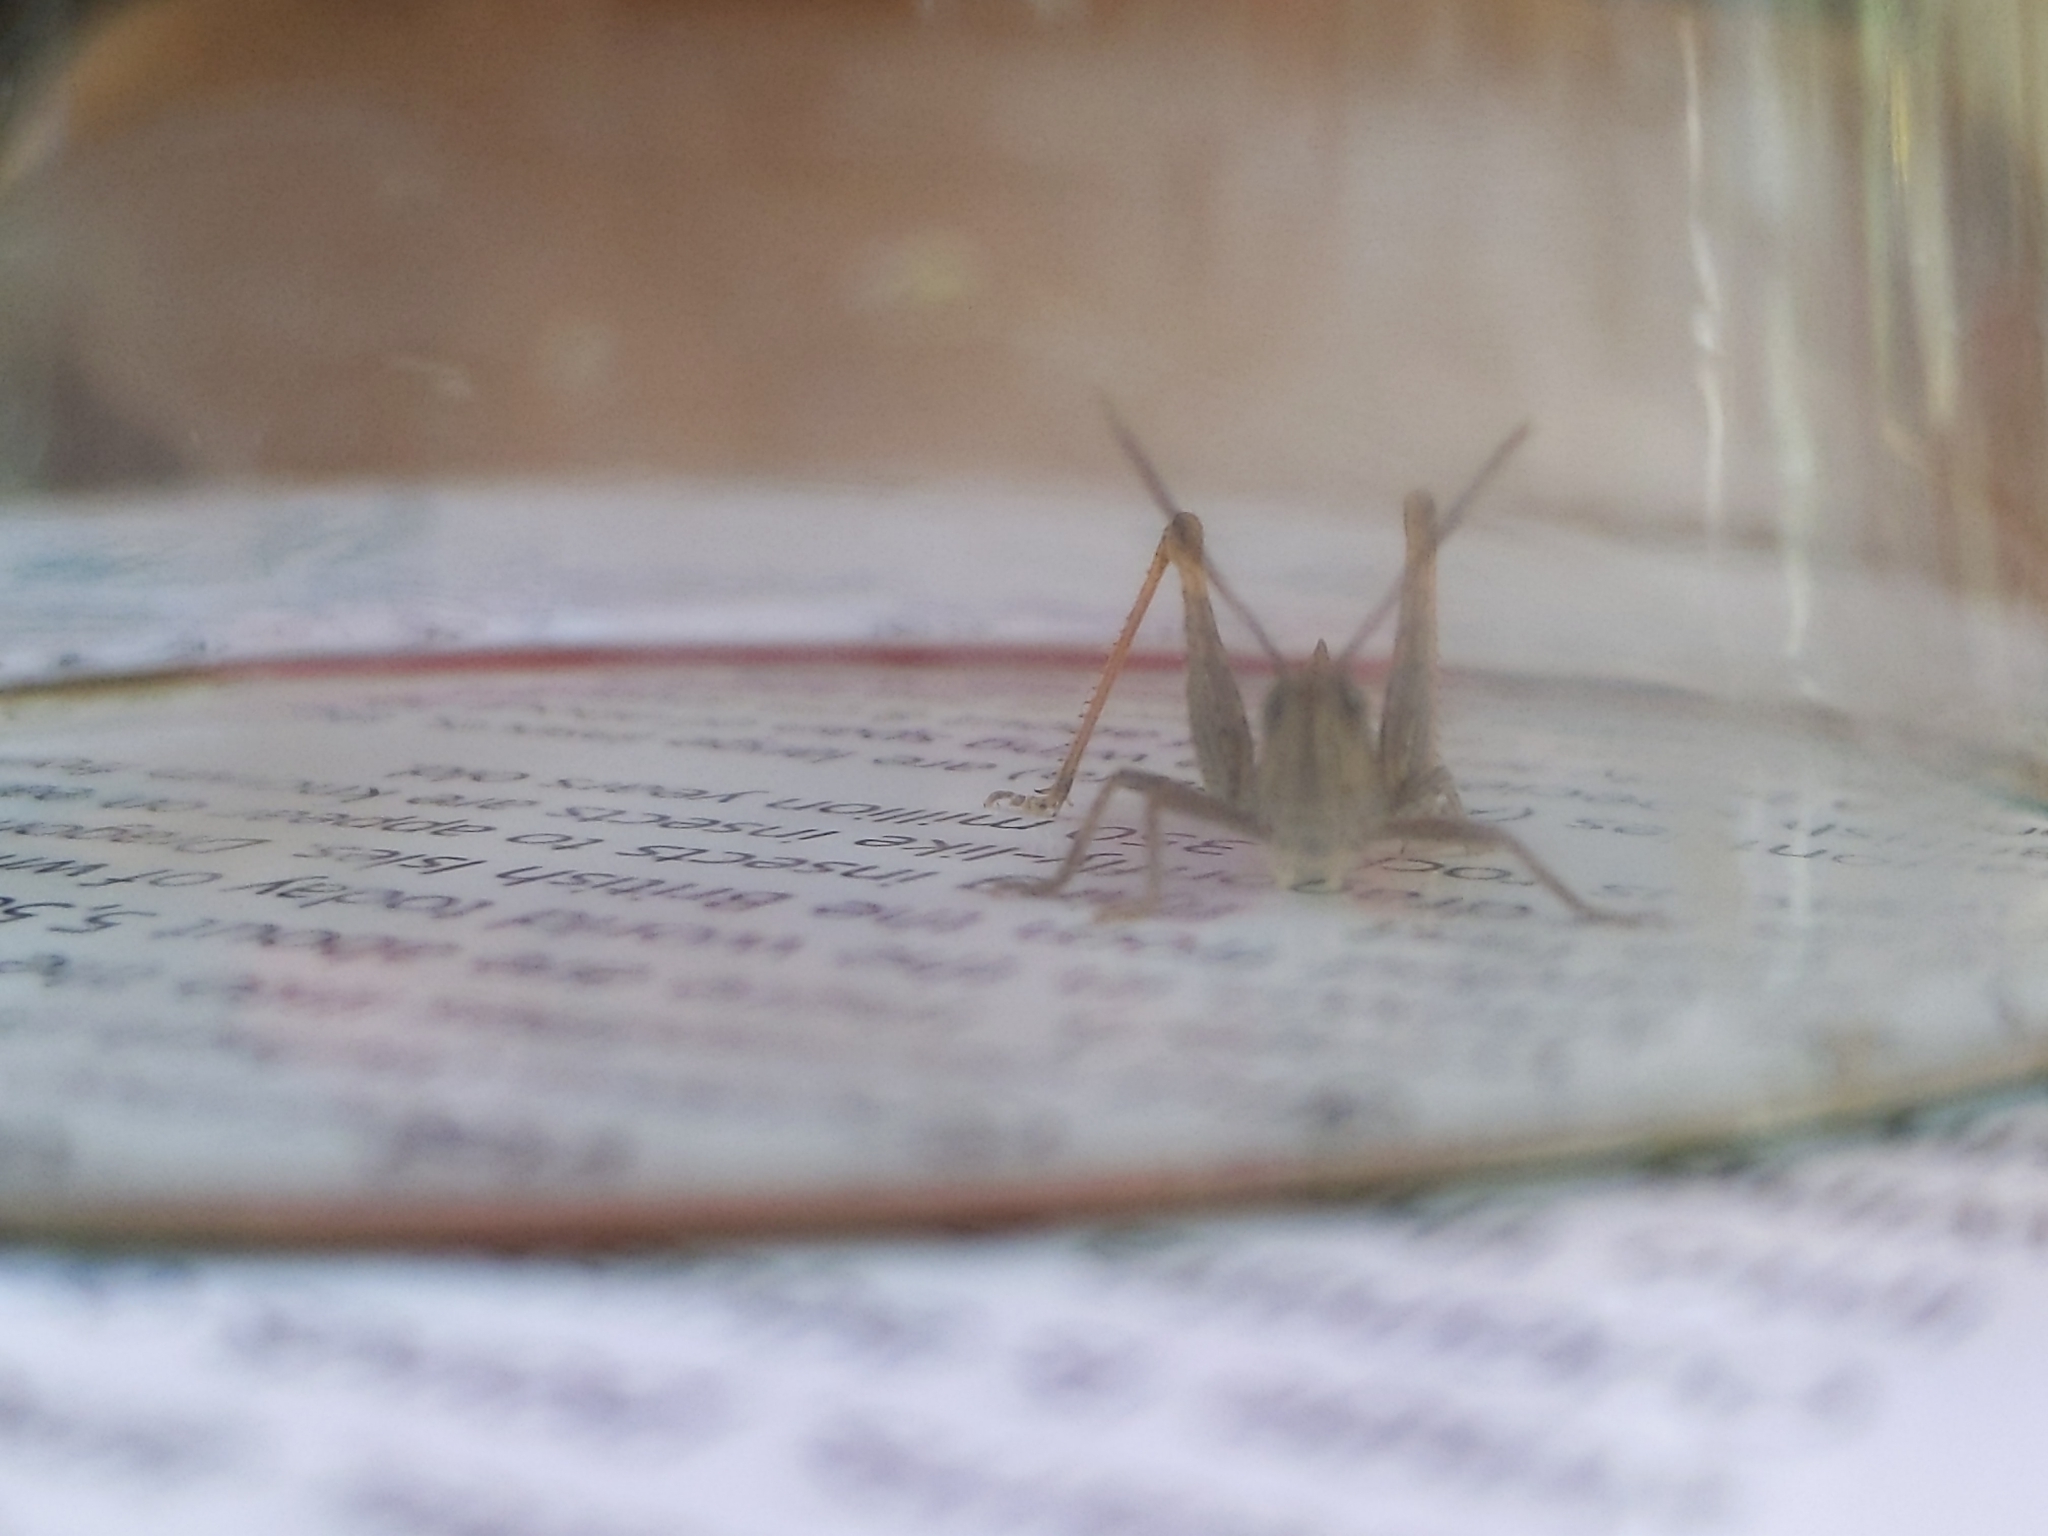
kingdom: Animalia
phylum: Arthropoda
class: Insecta
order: Orthoptera
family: Acrididae
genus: Chorthippus
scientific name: Chorthippus brunneus
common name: Field grasshopper
